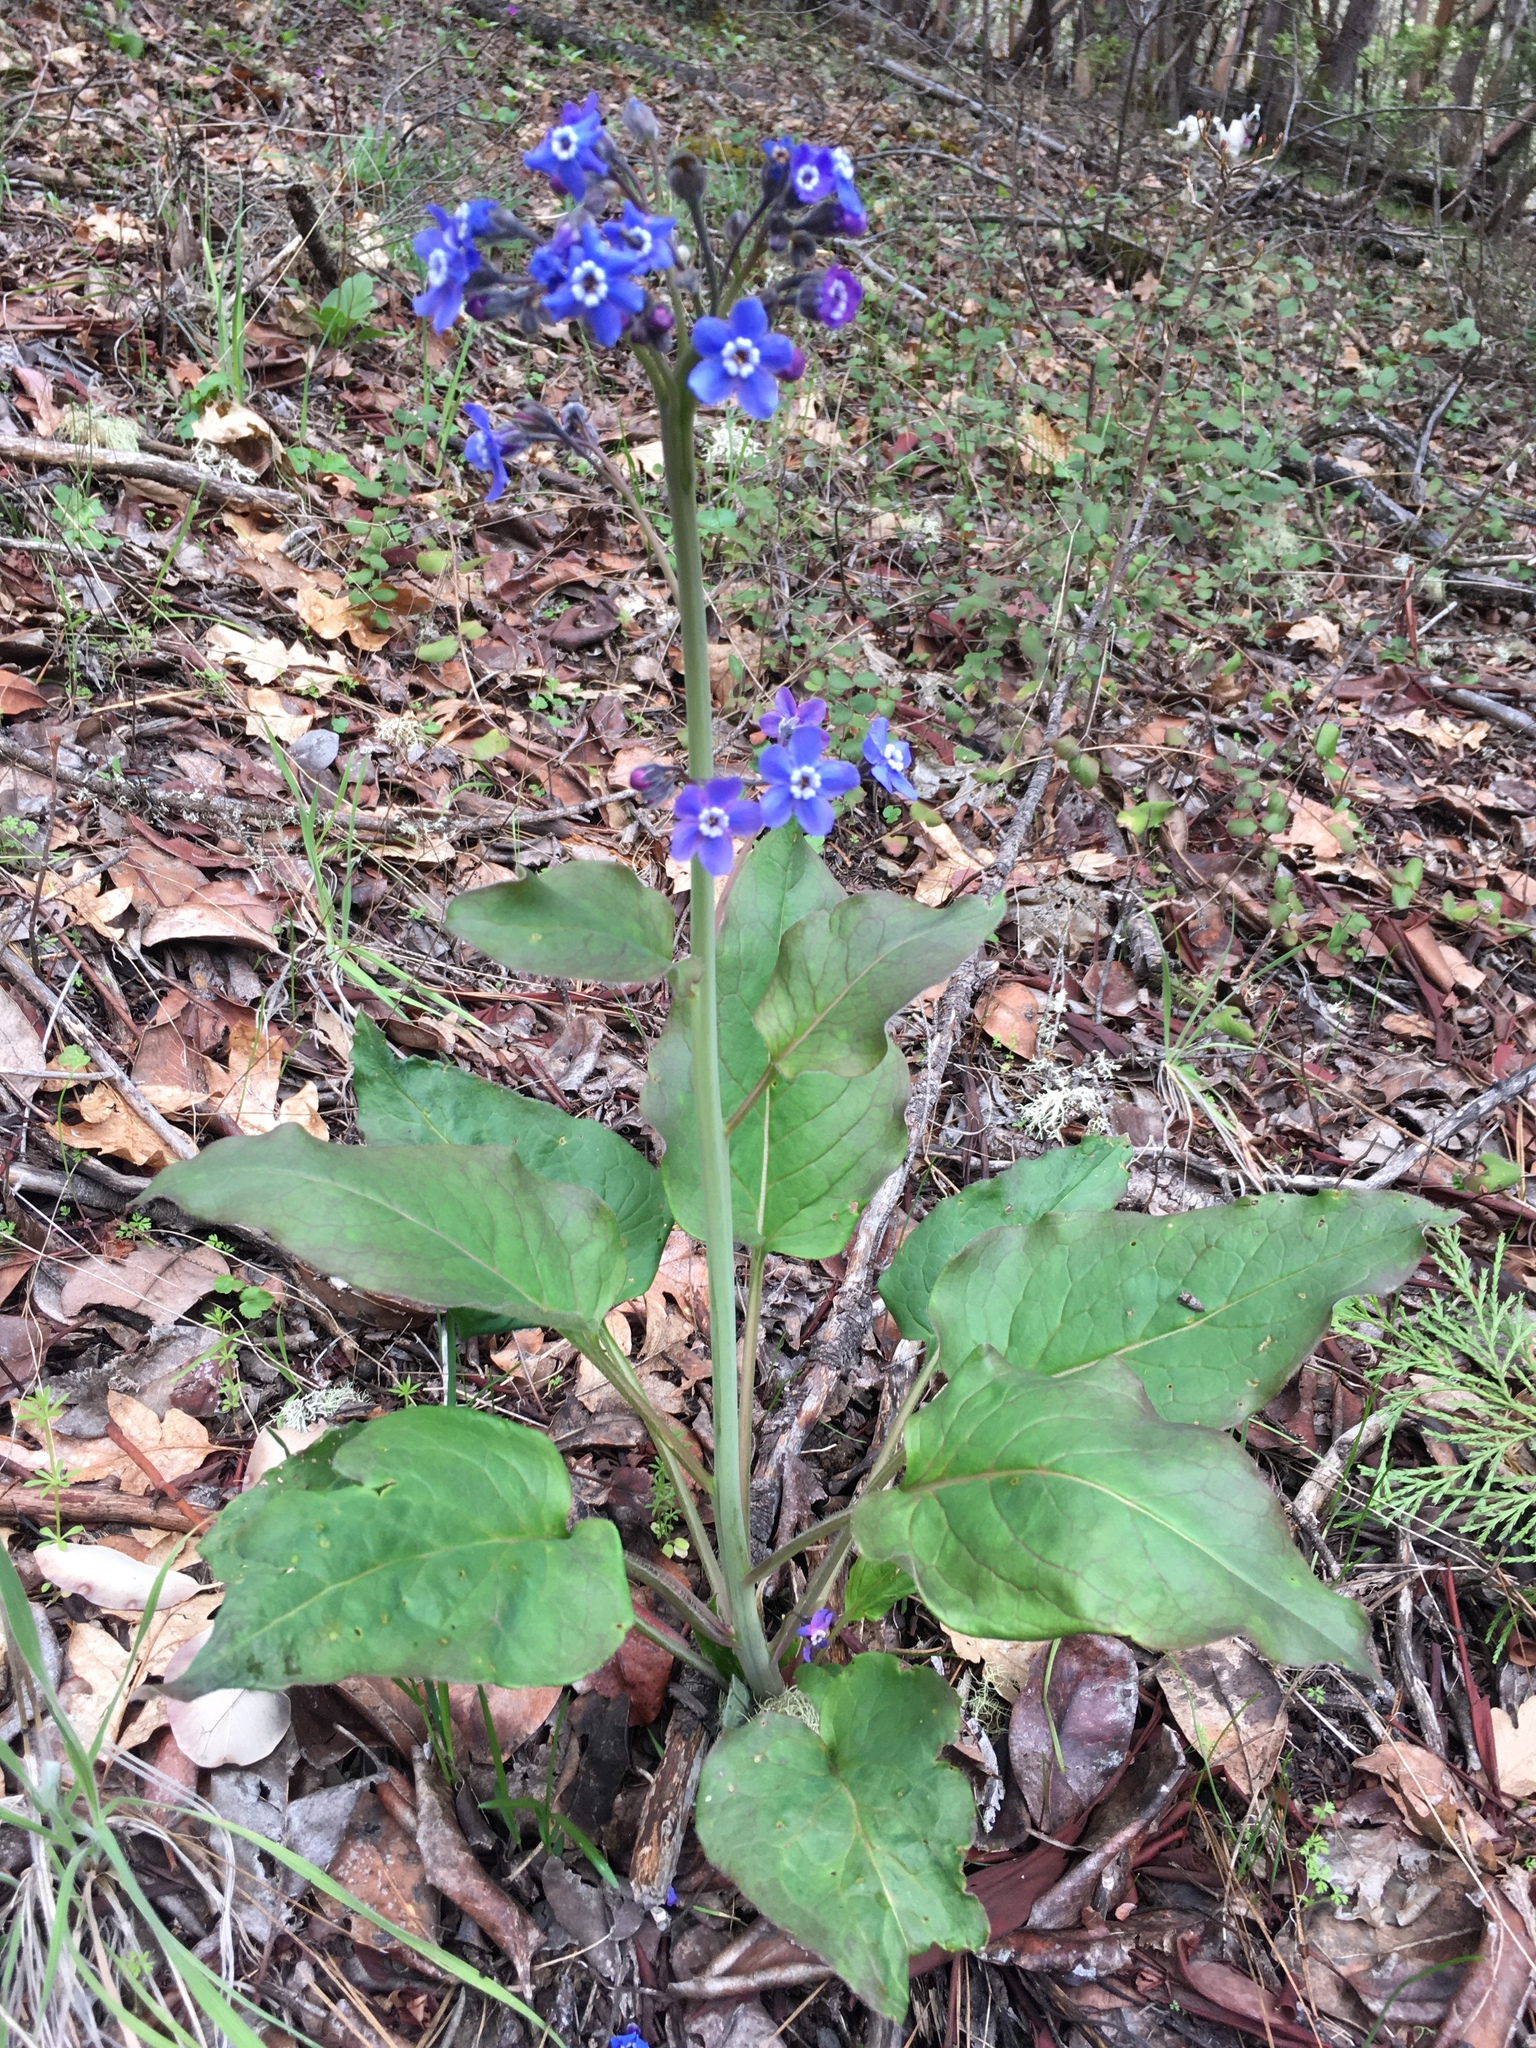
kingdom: Plantae
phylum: Tracheophyta
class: Magnoliopsida
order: Boraginales
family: Boraginaceae
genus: Adelinia
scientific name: Adelinia grande
